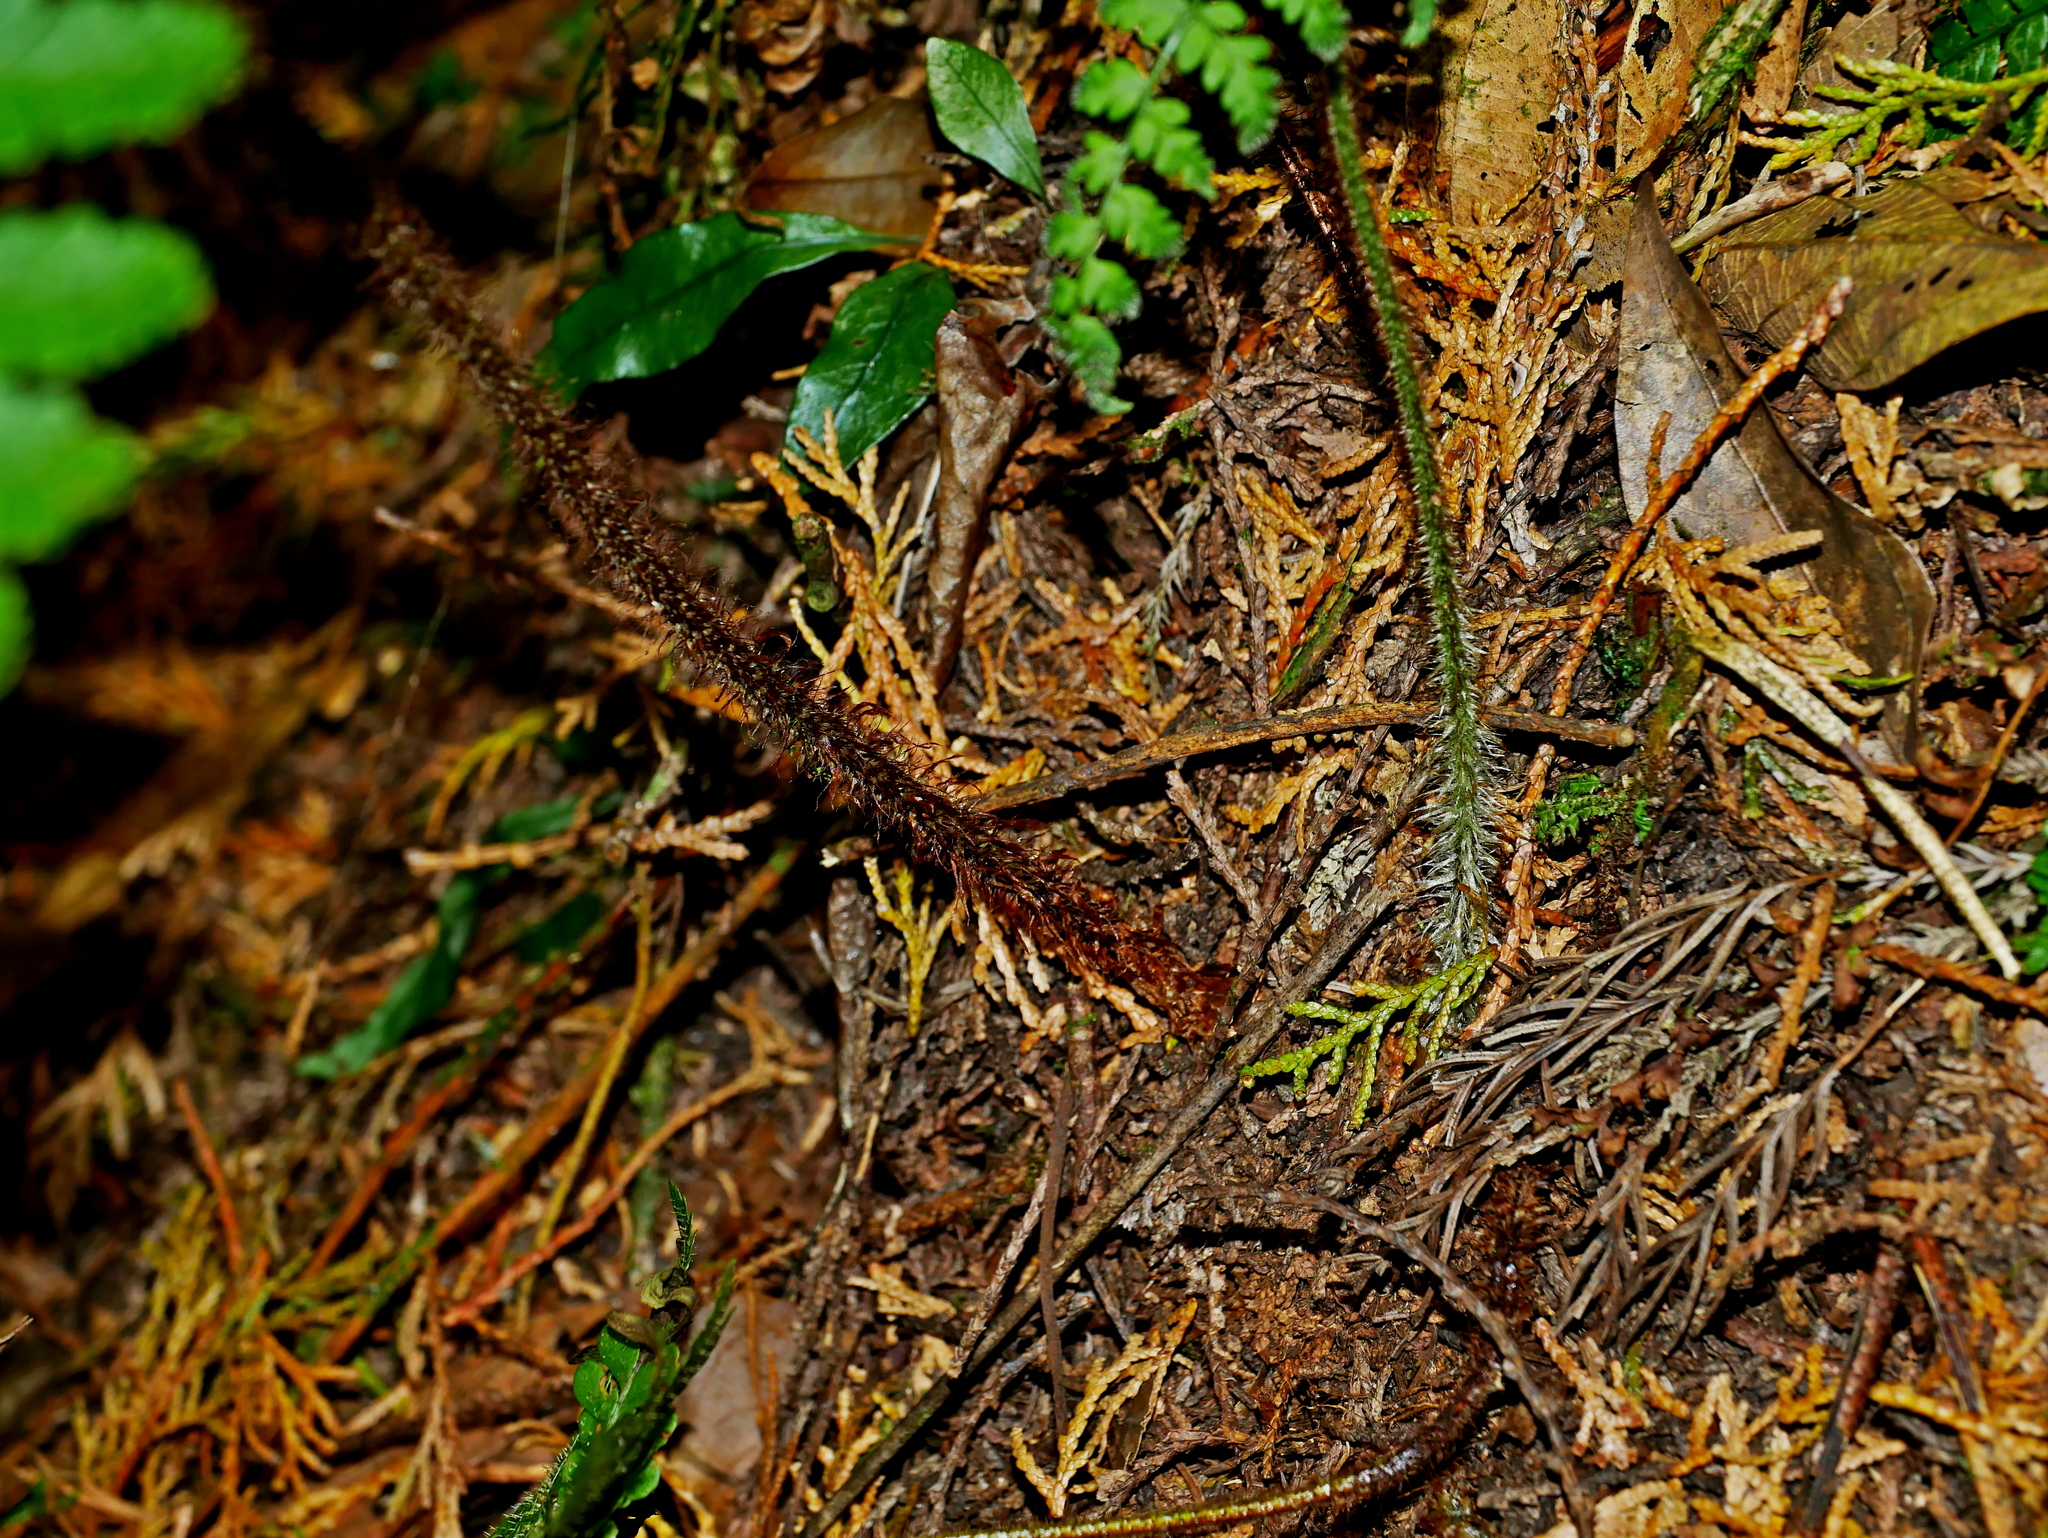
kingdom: Plantae
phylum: Tracheophyta
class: Polypodiopsida
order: Polypodiales
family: Dryopteridaceae
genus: Dryopteris
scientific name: Dryopteris squamiseta
